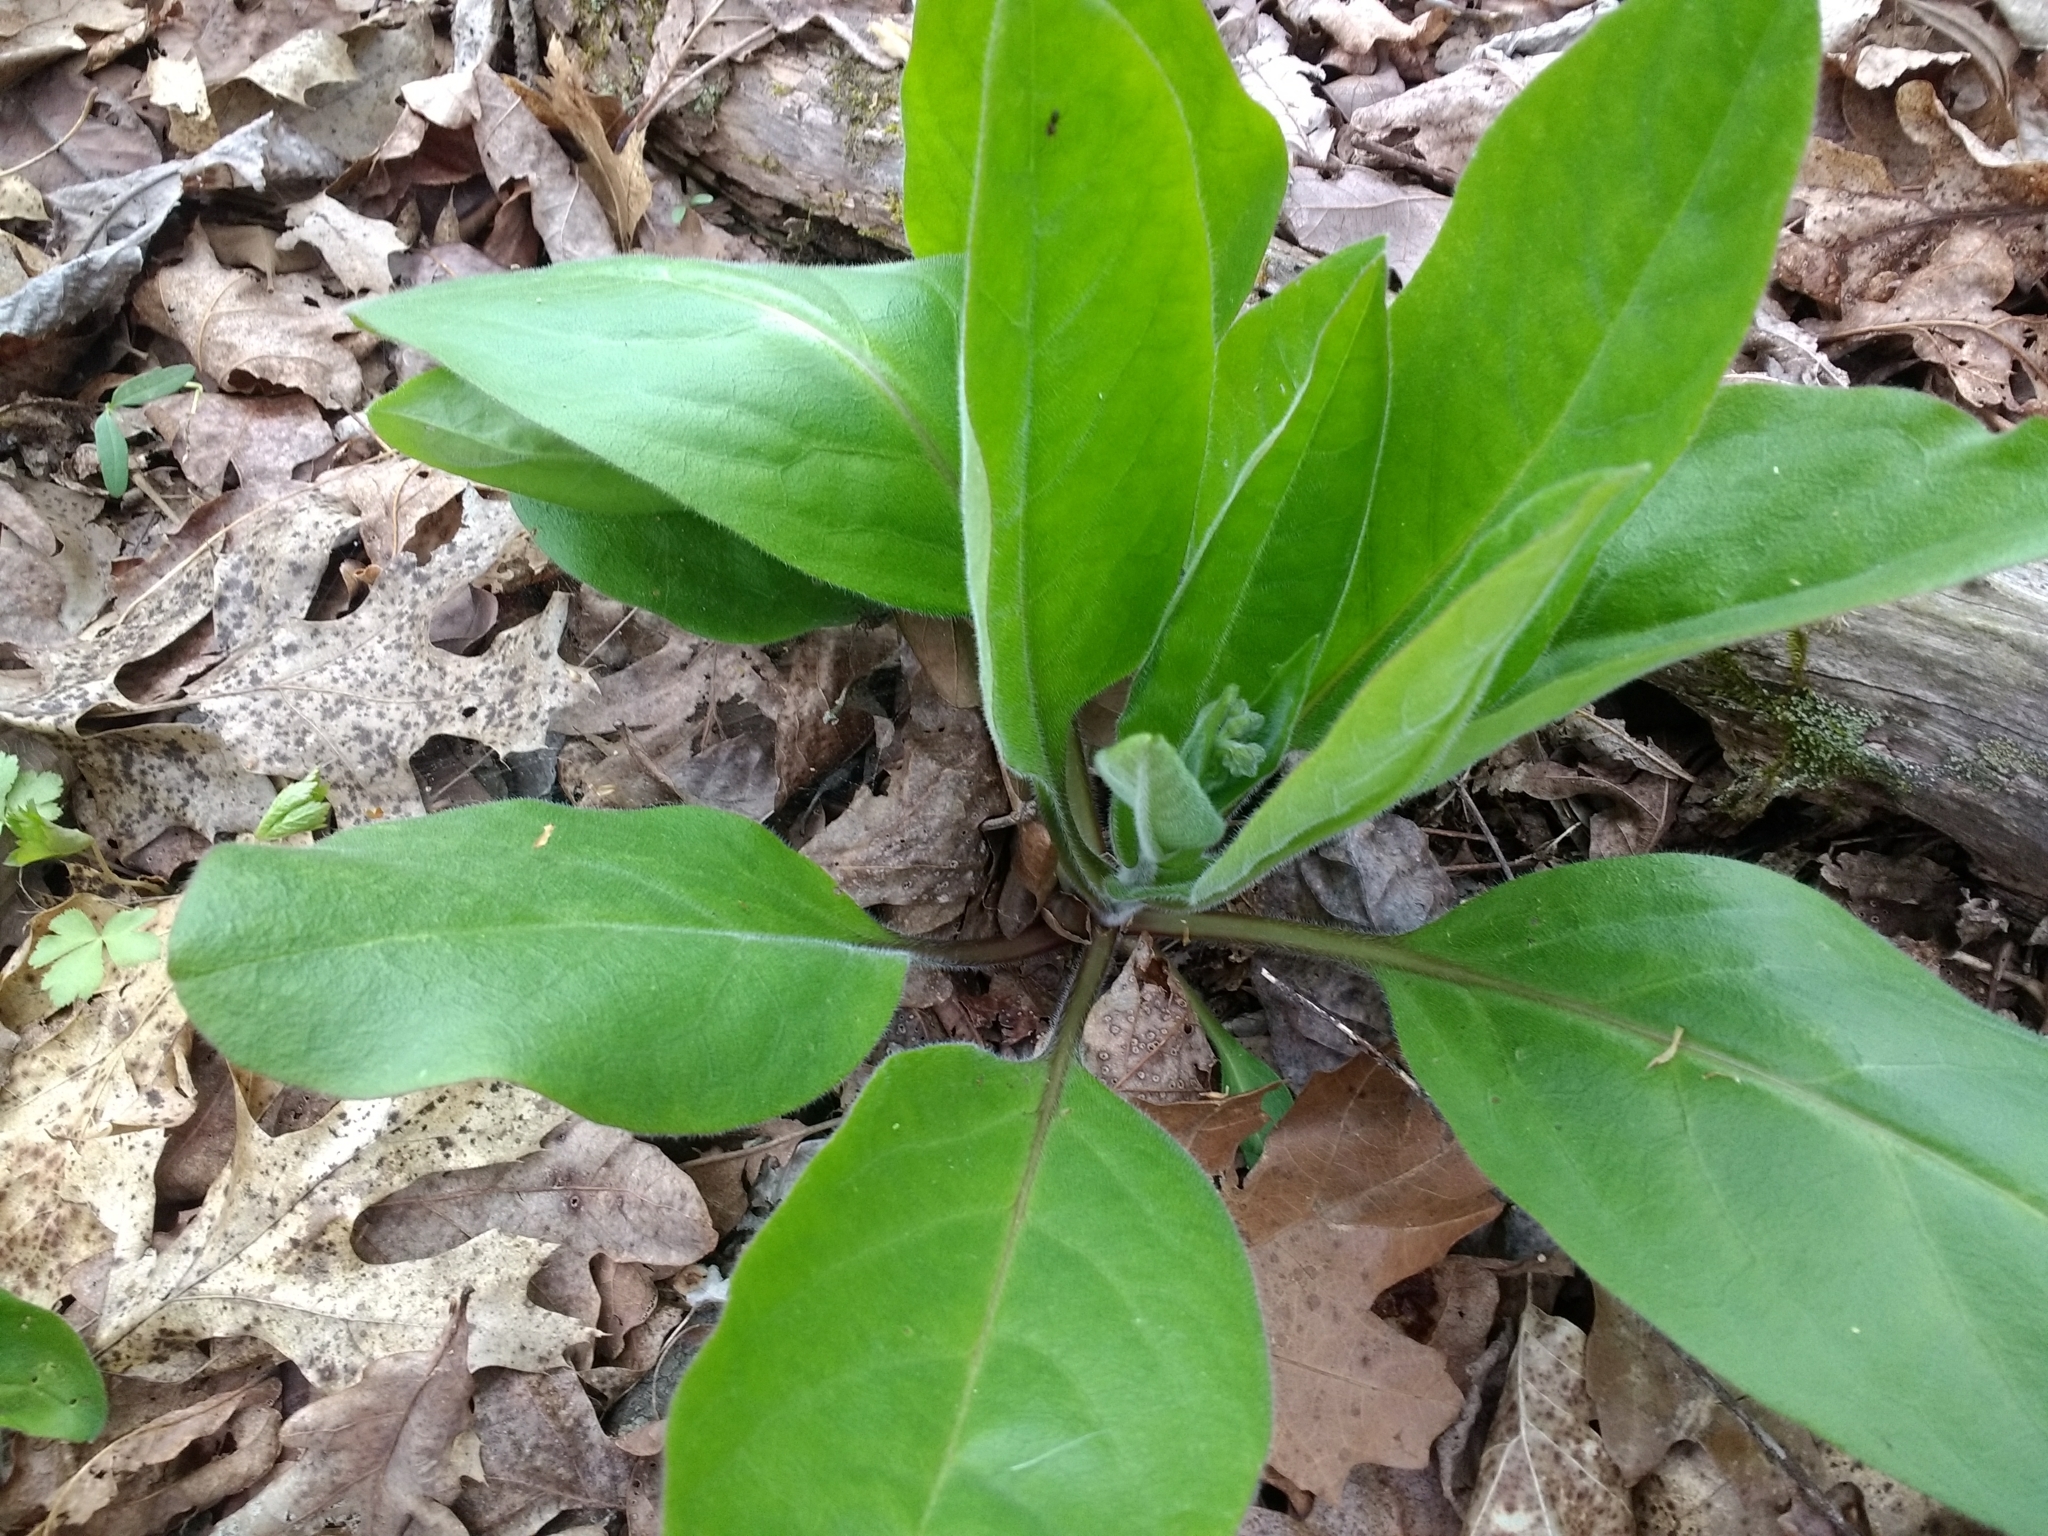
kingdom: Plantae
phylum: Tracheophyta
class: Magnoliopsida
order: Boraginales
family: Boraginaceae
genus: Andersonglossum
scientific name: Andersonglossum virginianum
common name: Wild comfrey
